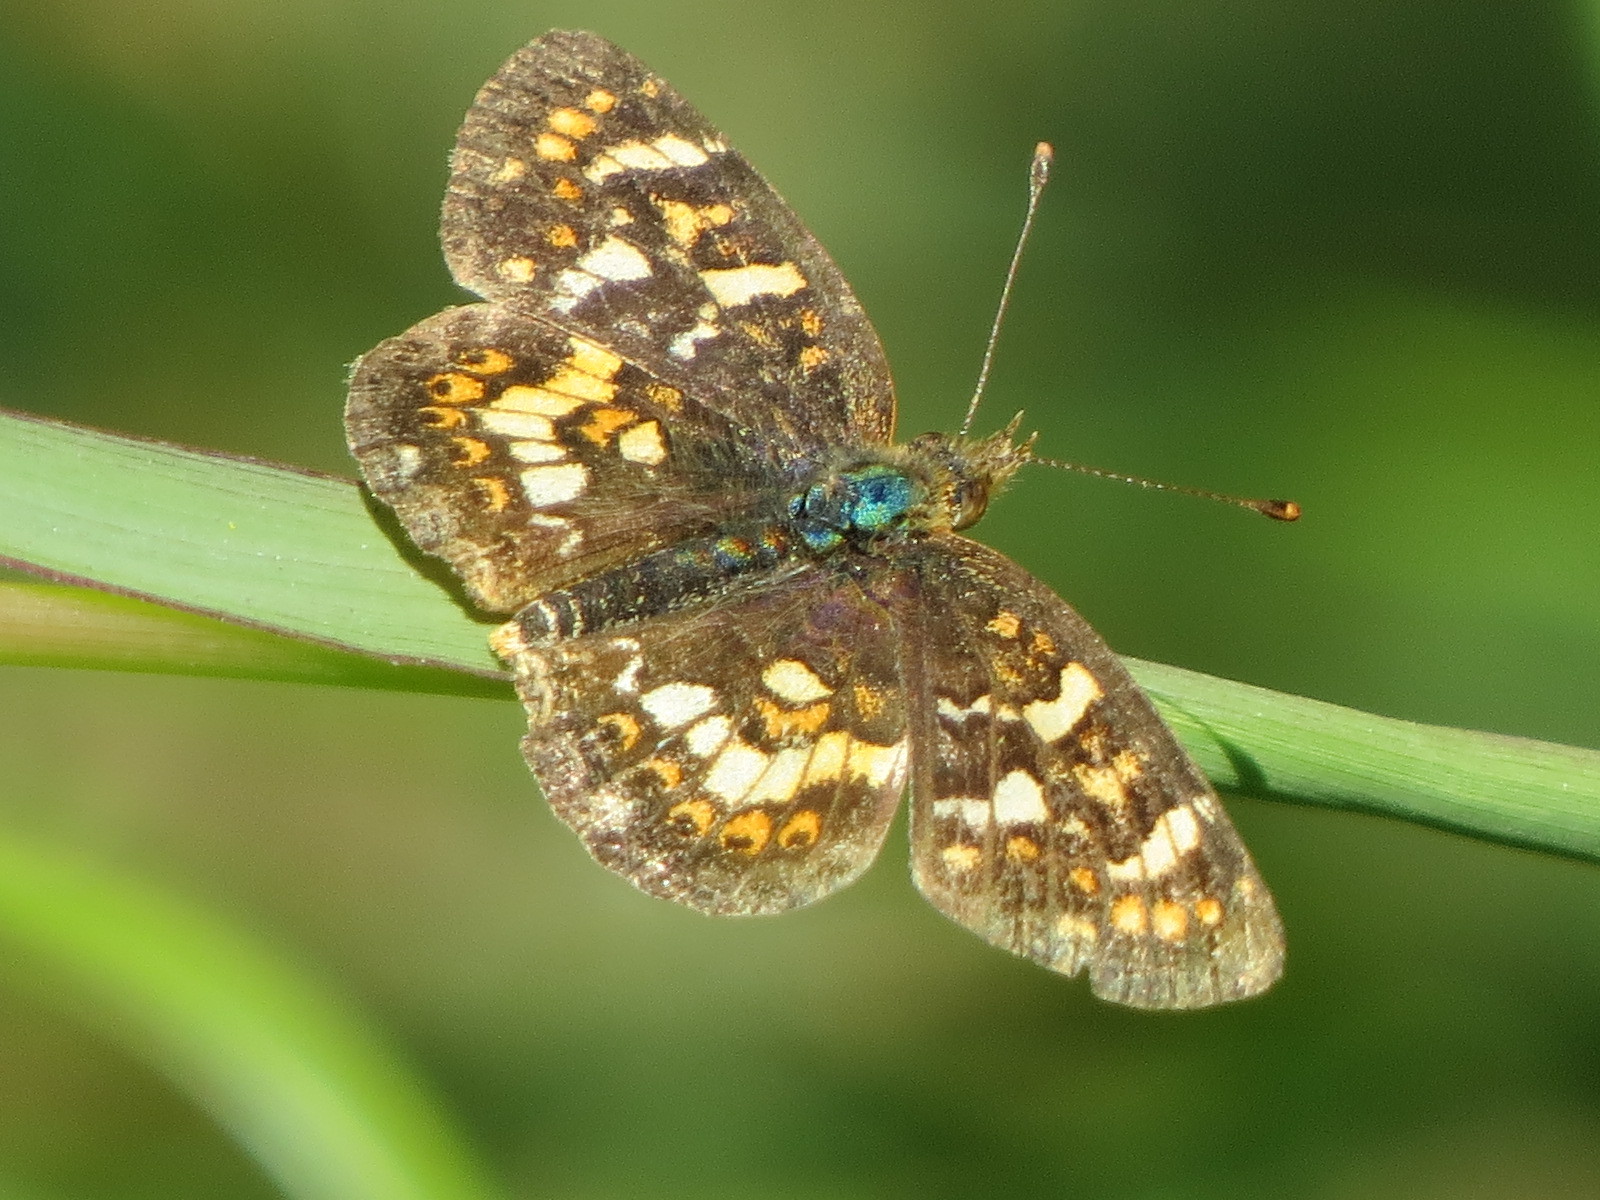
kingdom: Animalia
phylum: Arthropoda
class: Insecta
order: Lepidoptera
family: Nymphalidae
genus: Phyciodes
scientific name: Phyciodes tharos
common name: Pearl crescent
